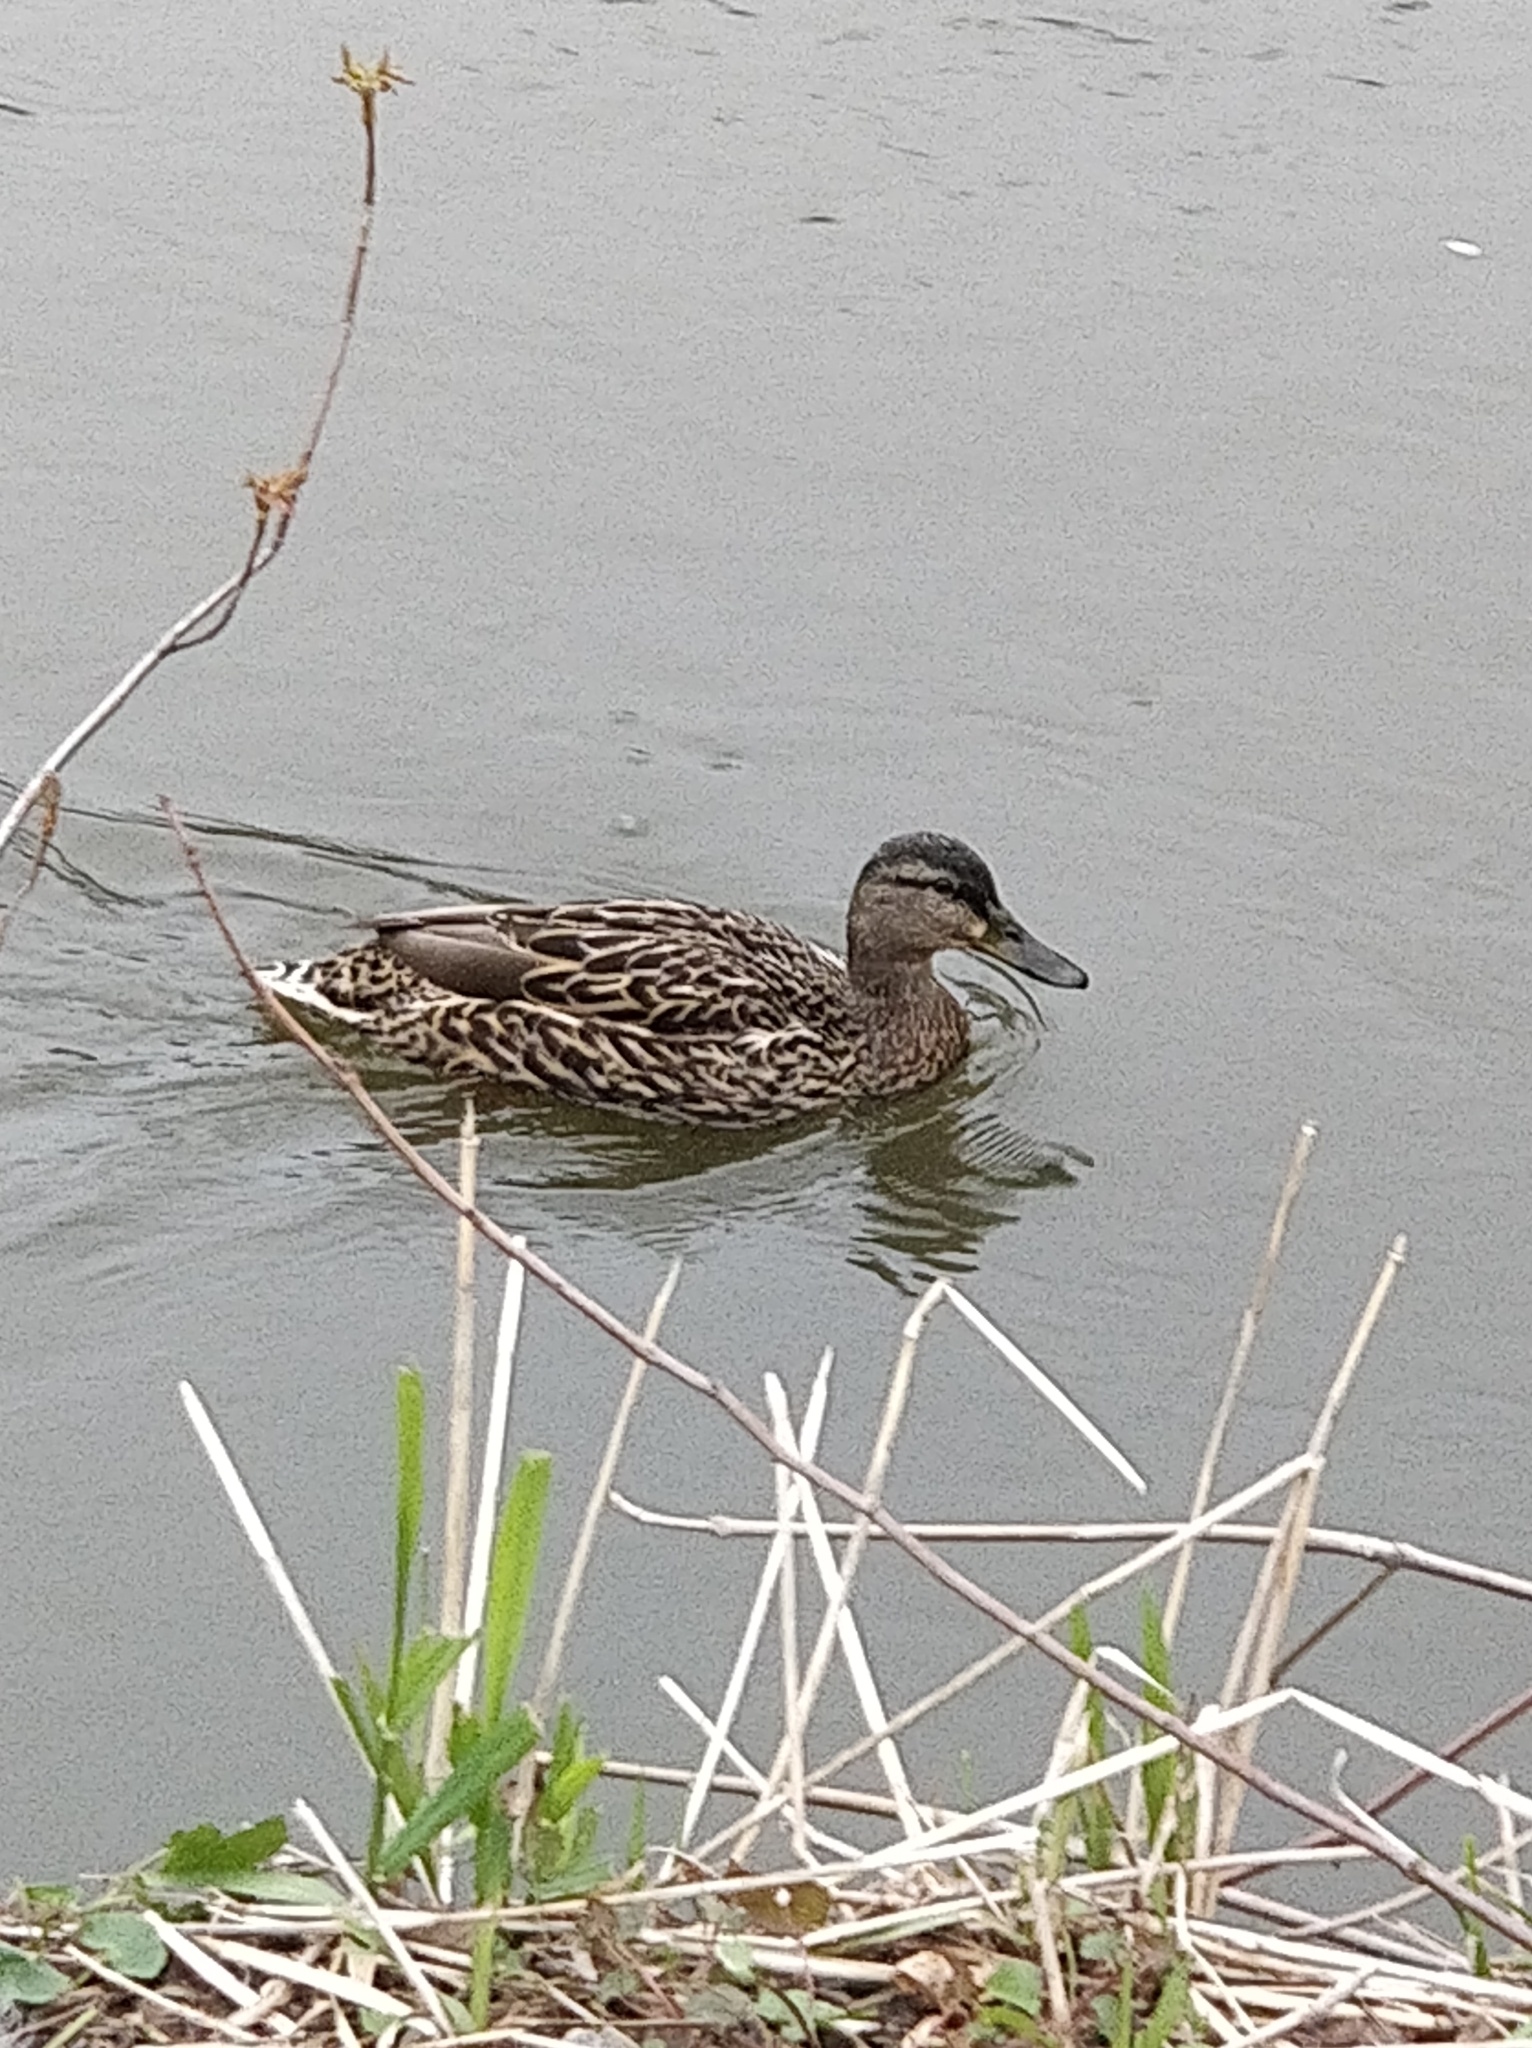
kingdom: Animalia
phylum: Chordata
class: Aves
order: Anseriformes
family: Anatidae
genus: Anas
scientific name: Anas platyrhynchos
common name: Mallard
